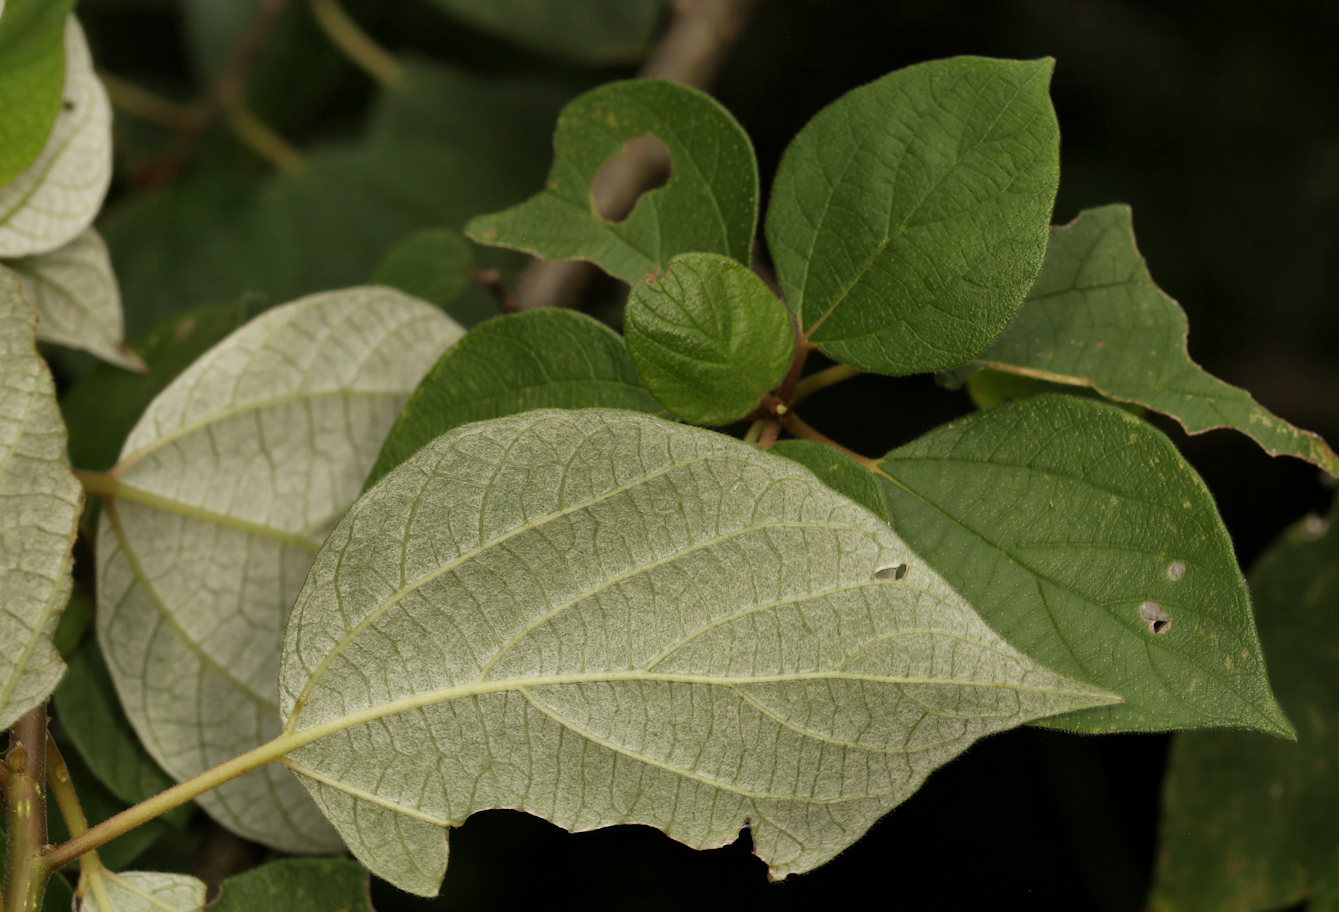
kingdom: Plantae
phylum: Tracheophyta
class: Magnoliopsida
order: Rosales
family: Urticaceae
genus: Pouzolzia
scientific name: Pouzolzia mixta
